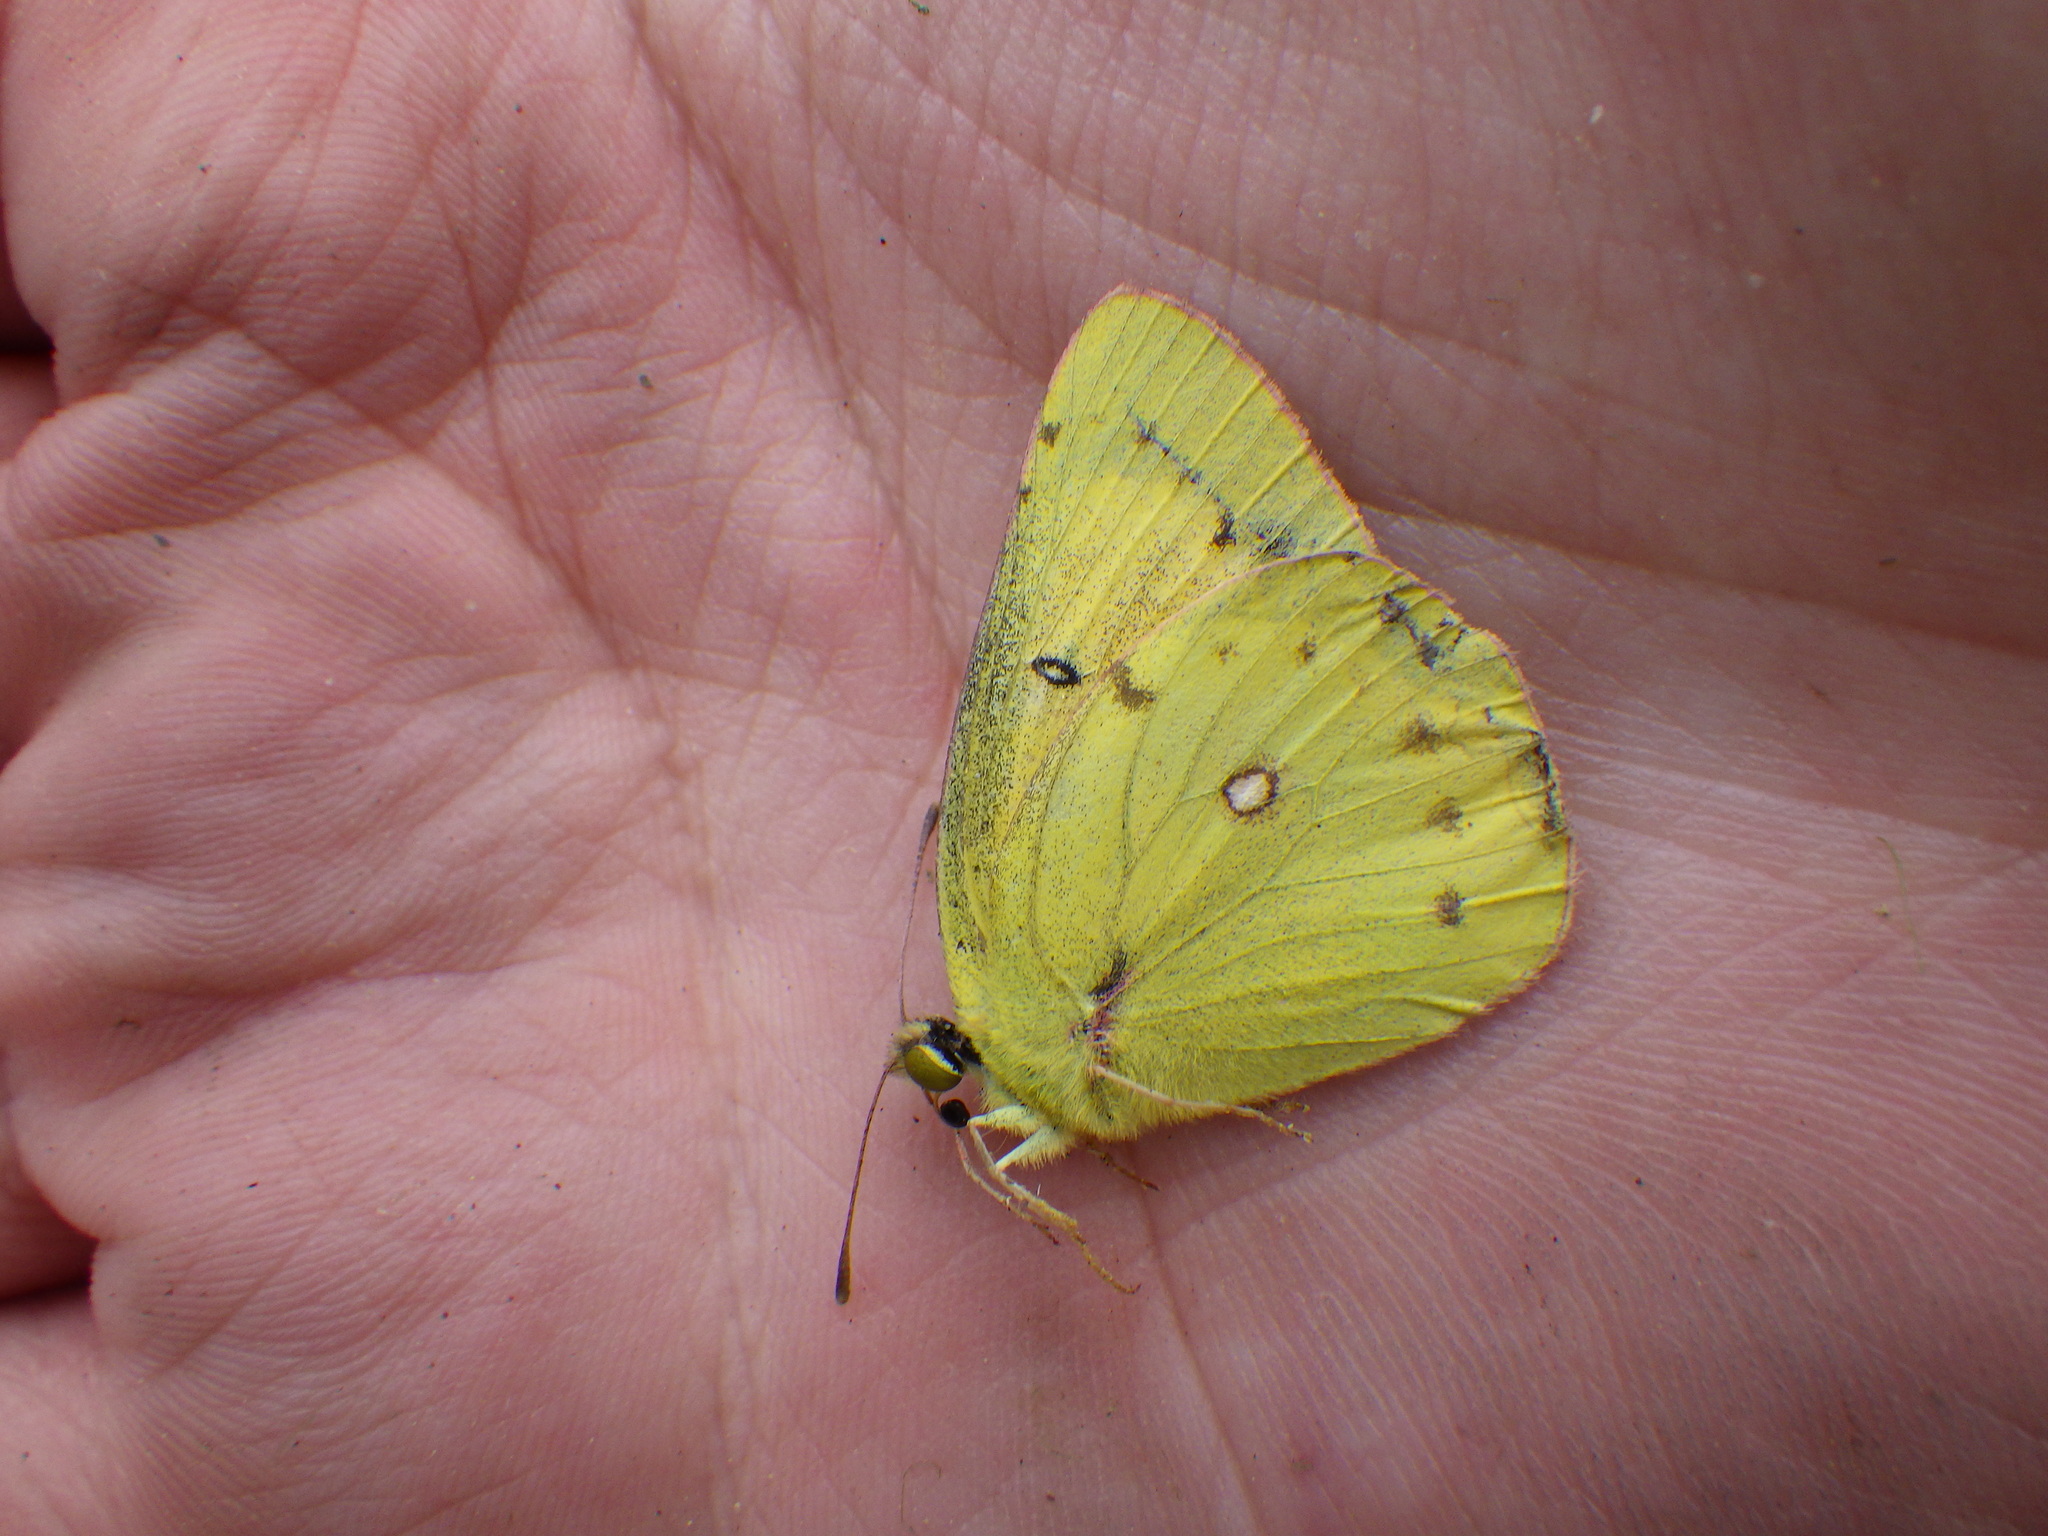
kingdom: Animalia
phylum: Arthropoda
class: Insecta
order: Lepidoptera
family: Pieridae
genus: Colias
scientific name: Colias eurytheme
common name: Alfalfa butterfly
